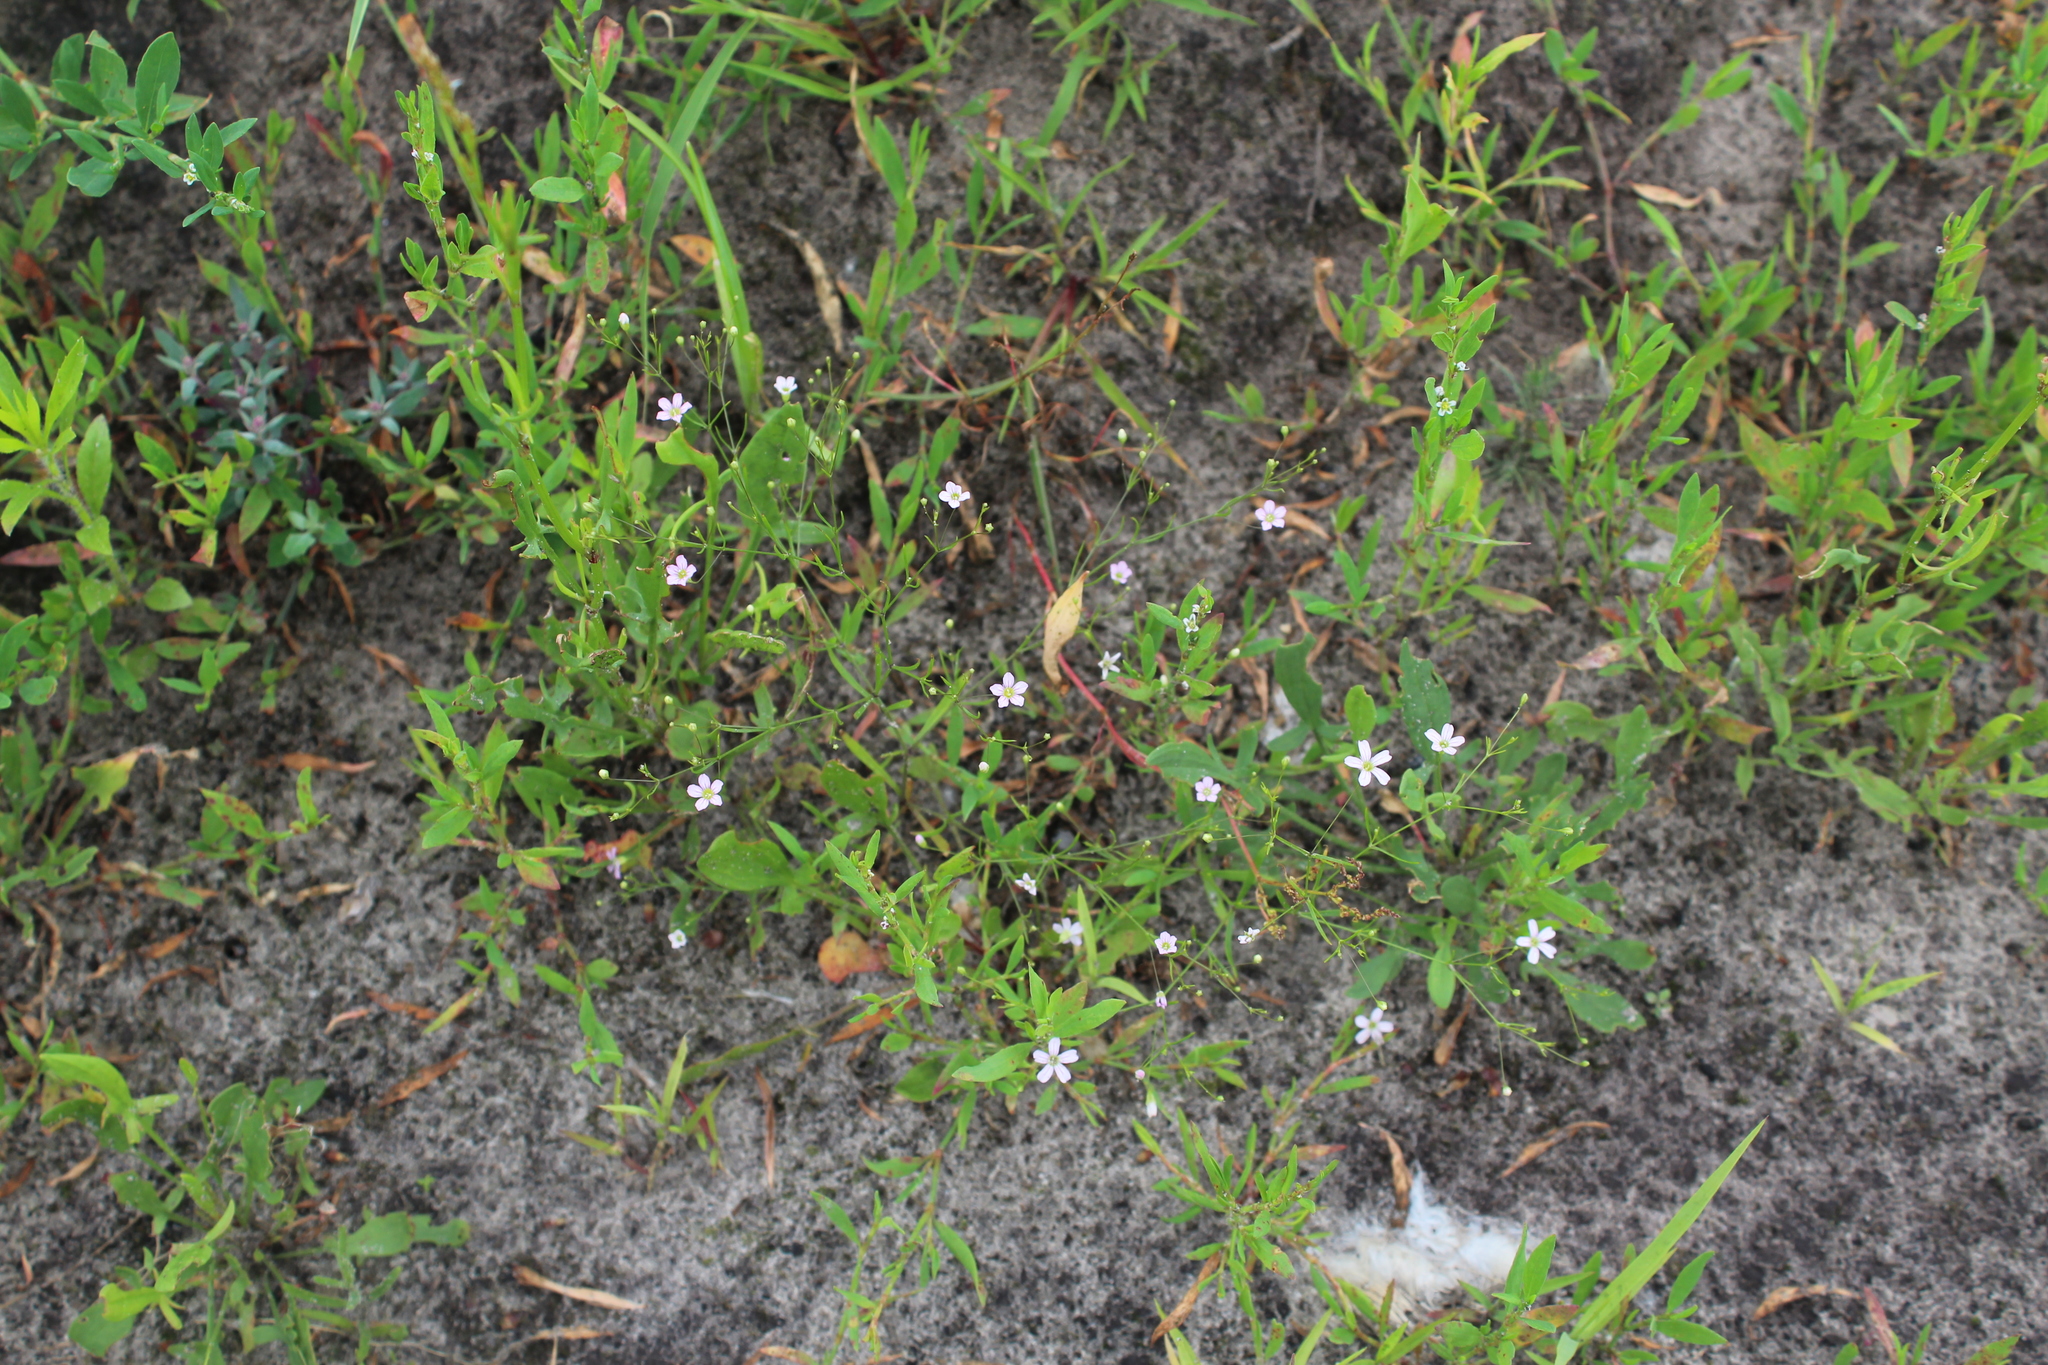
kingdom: Plantae
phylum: Tracheophyta
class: Magnoliopsida
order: Caryophyllales
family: Caryophyllaceae
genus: Psammophiliella
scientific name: Psammophiliella muralis
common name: Cushion baby's-breath
